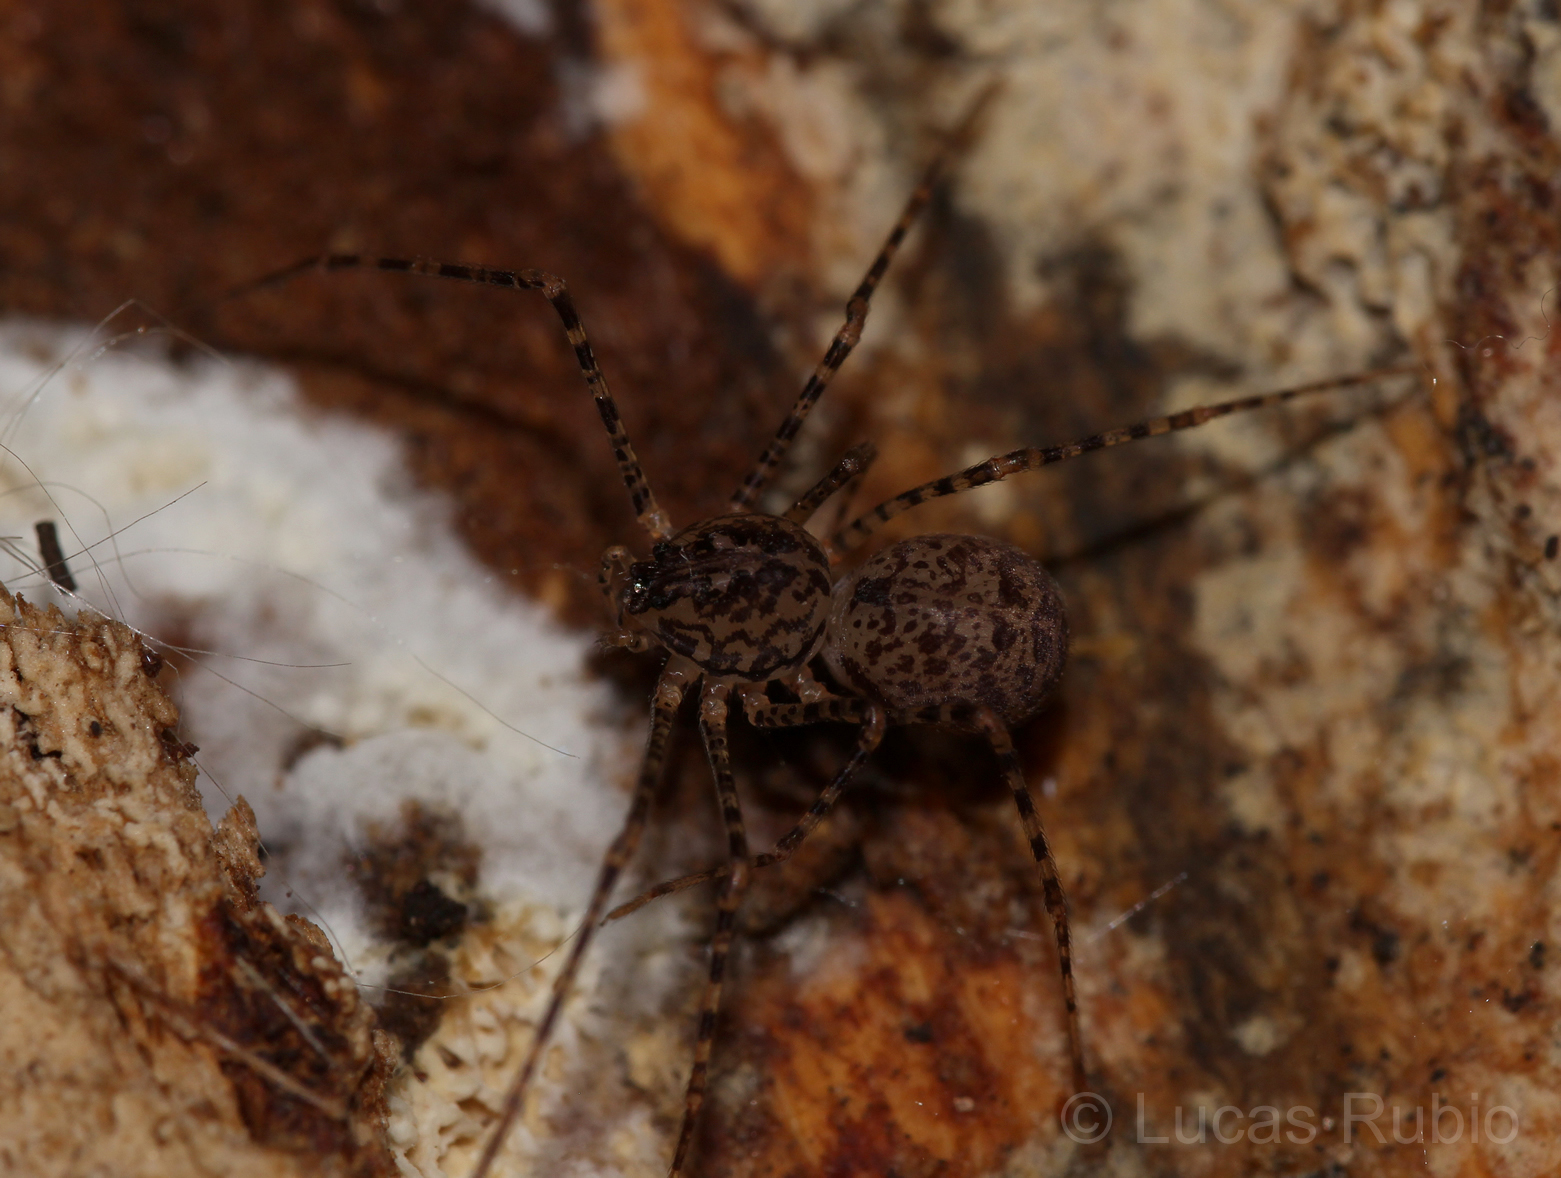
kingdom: Animalia
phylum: Arthropoda
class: Arachnida
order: Araneae
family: Scytodidae
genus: Scytodes
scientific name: Scytodes globula
